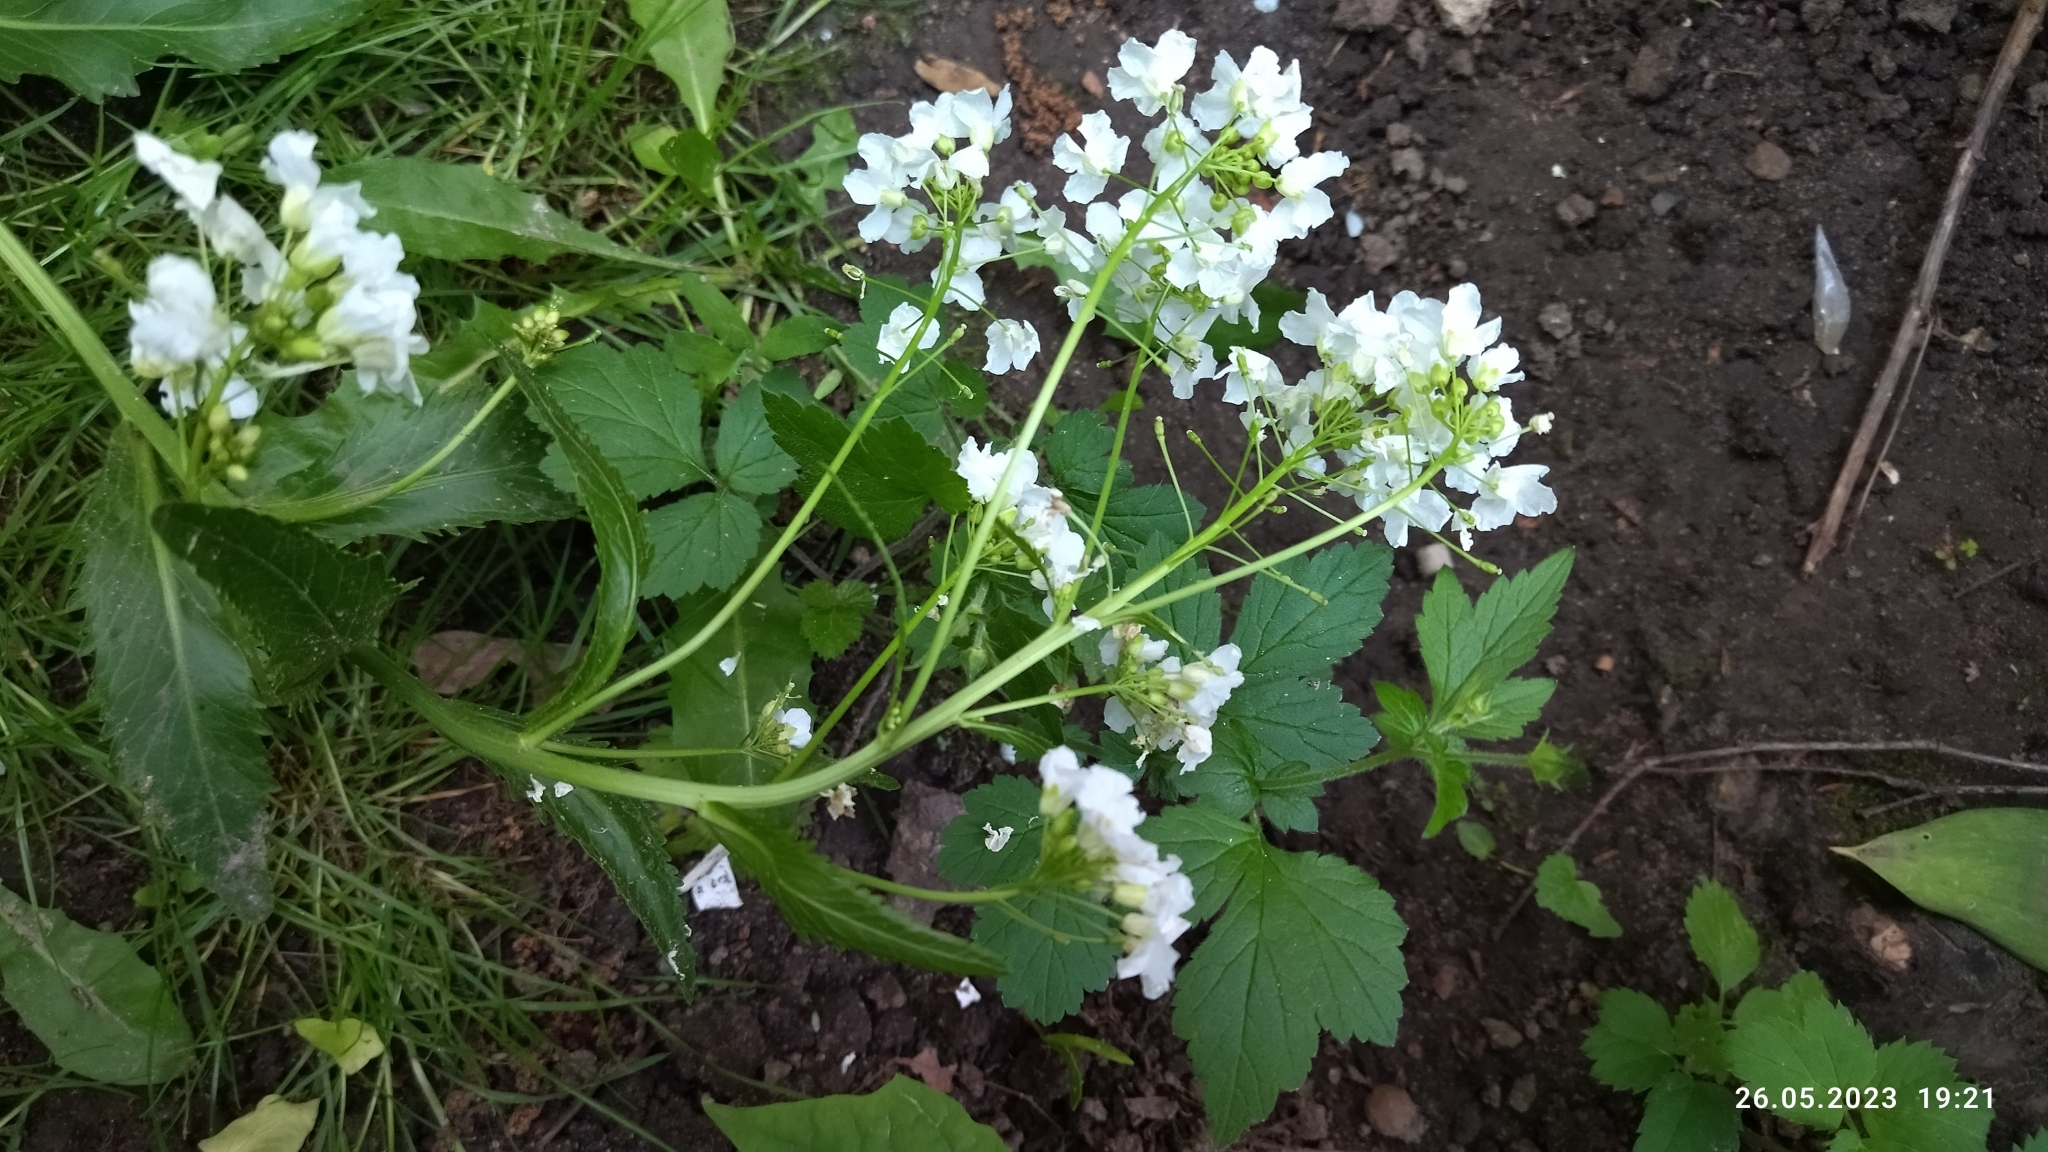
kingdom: Plantae
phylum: Tracheophyta
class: Magnoliopsida
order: Brassicales
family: Brassicaceae
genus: Armoracia
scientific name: Armoracia rusticana
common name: Horseradish
